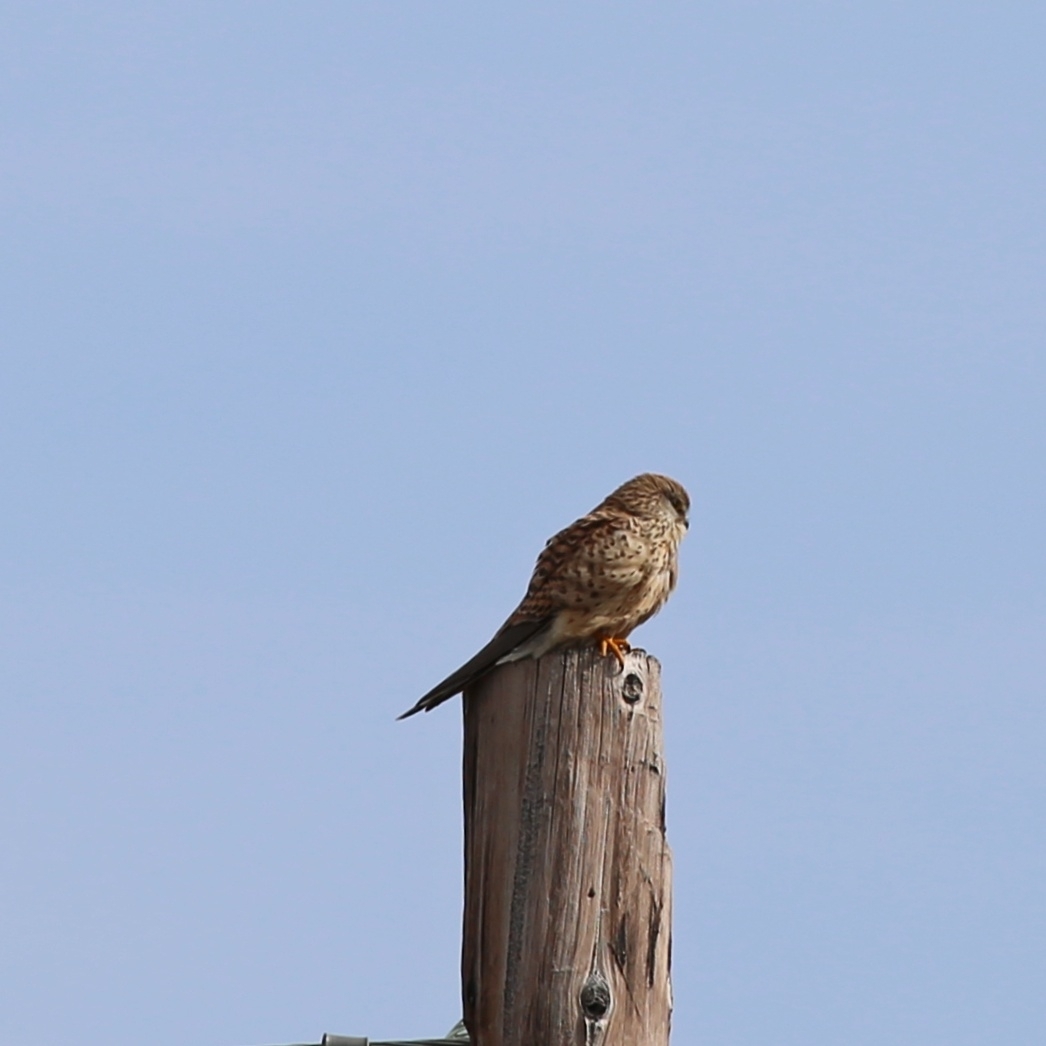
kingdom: Animalia
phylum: Chordata
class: Aves
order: Falconiformes
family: Falconidae
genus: Falco
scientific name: Falco tinnunculus
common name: Common kestrel
